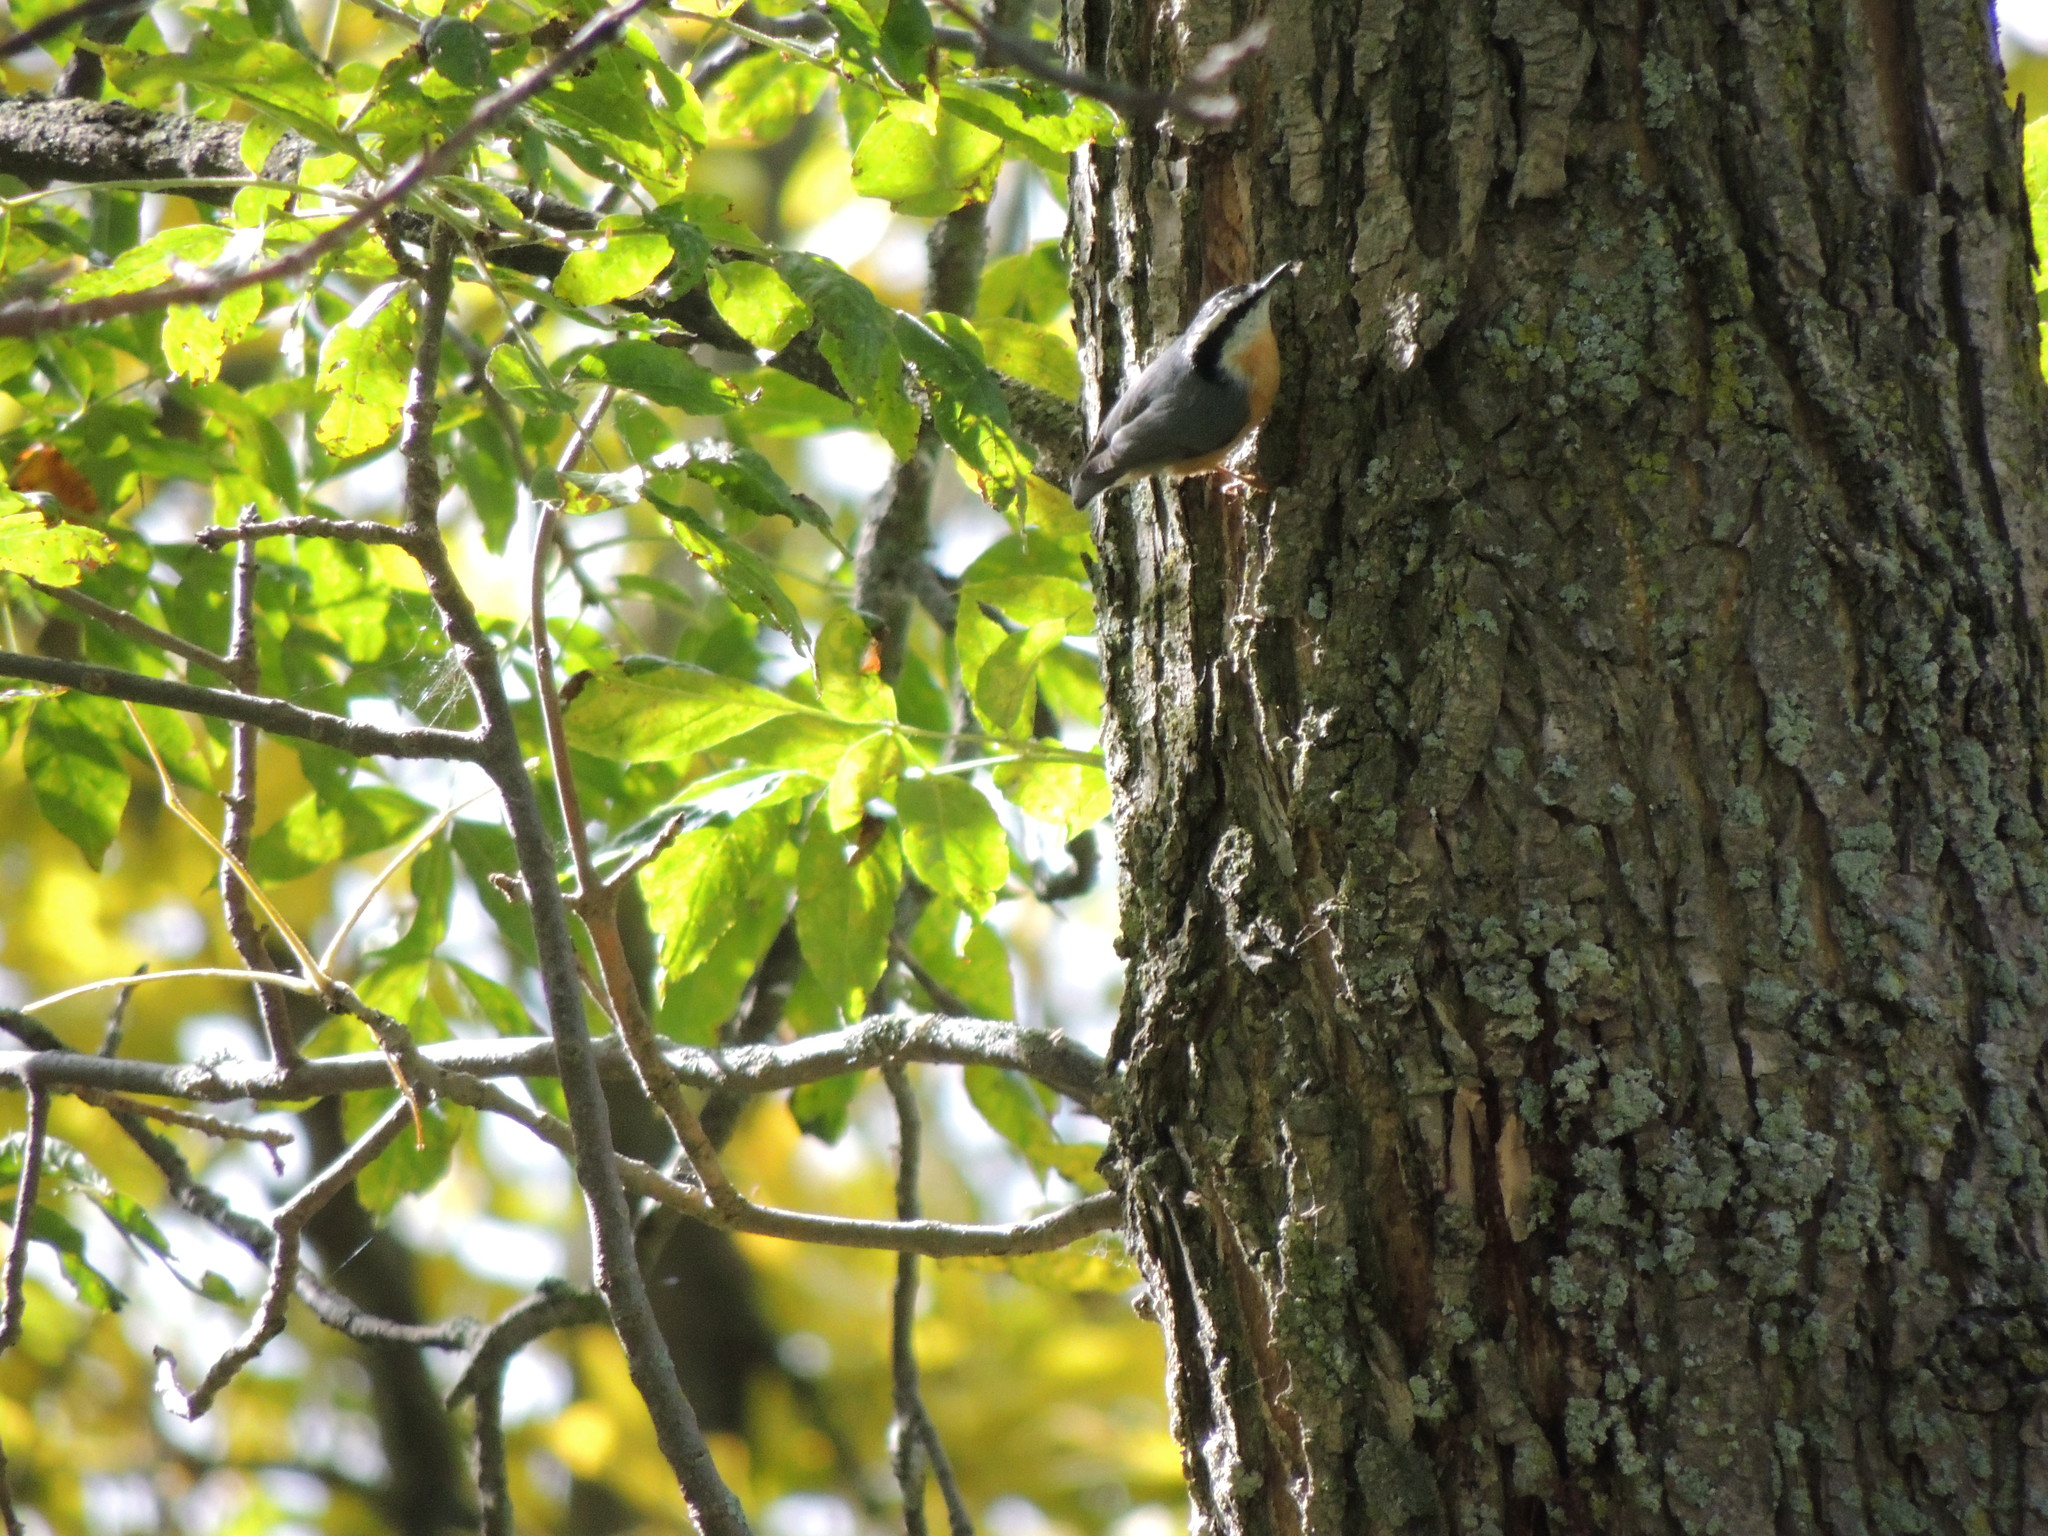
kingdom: Animalia
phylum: Chordata
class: Aves
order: Passeriformes
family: Sittidae
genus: Sitta
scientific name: Sitta canadensis
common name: Red-breasted nuthatch
